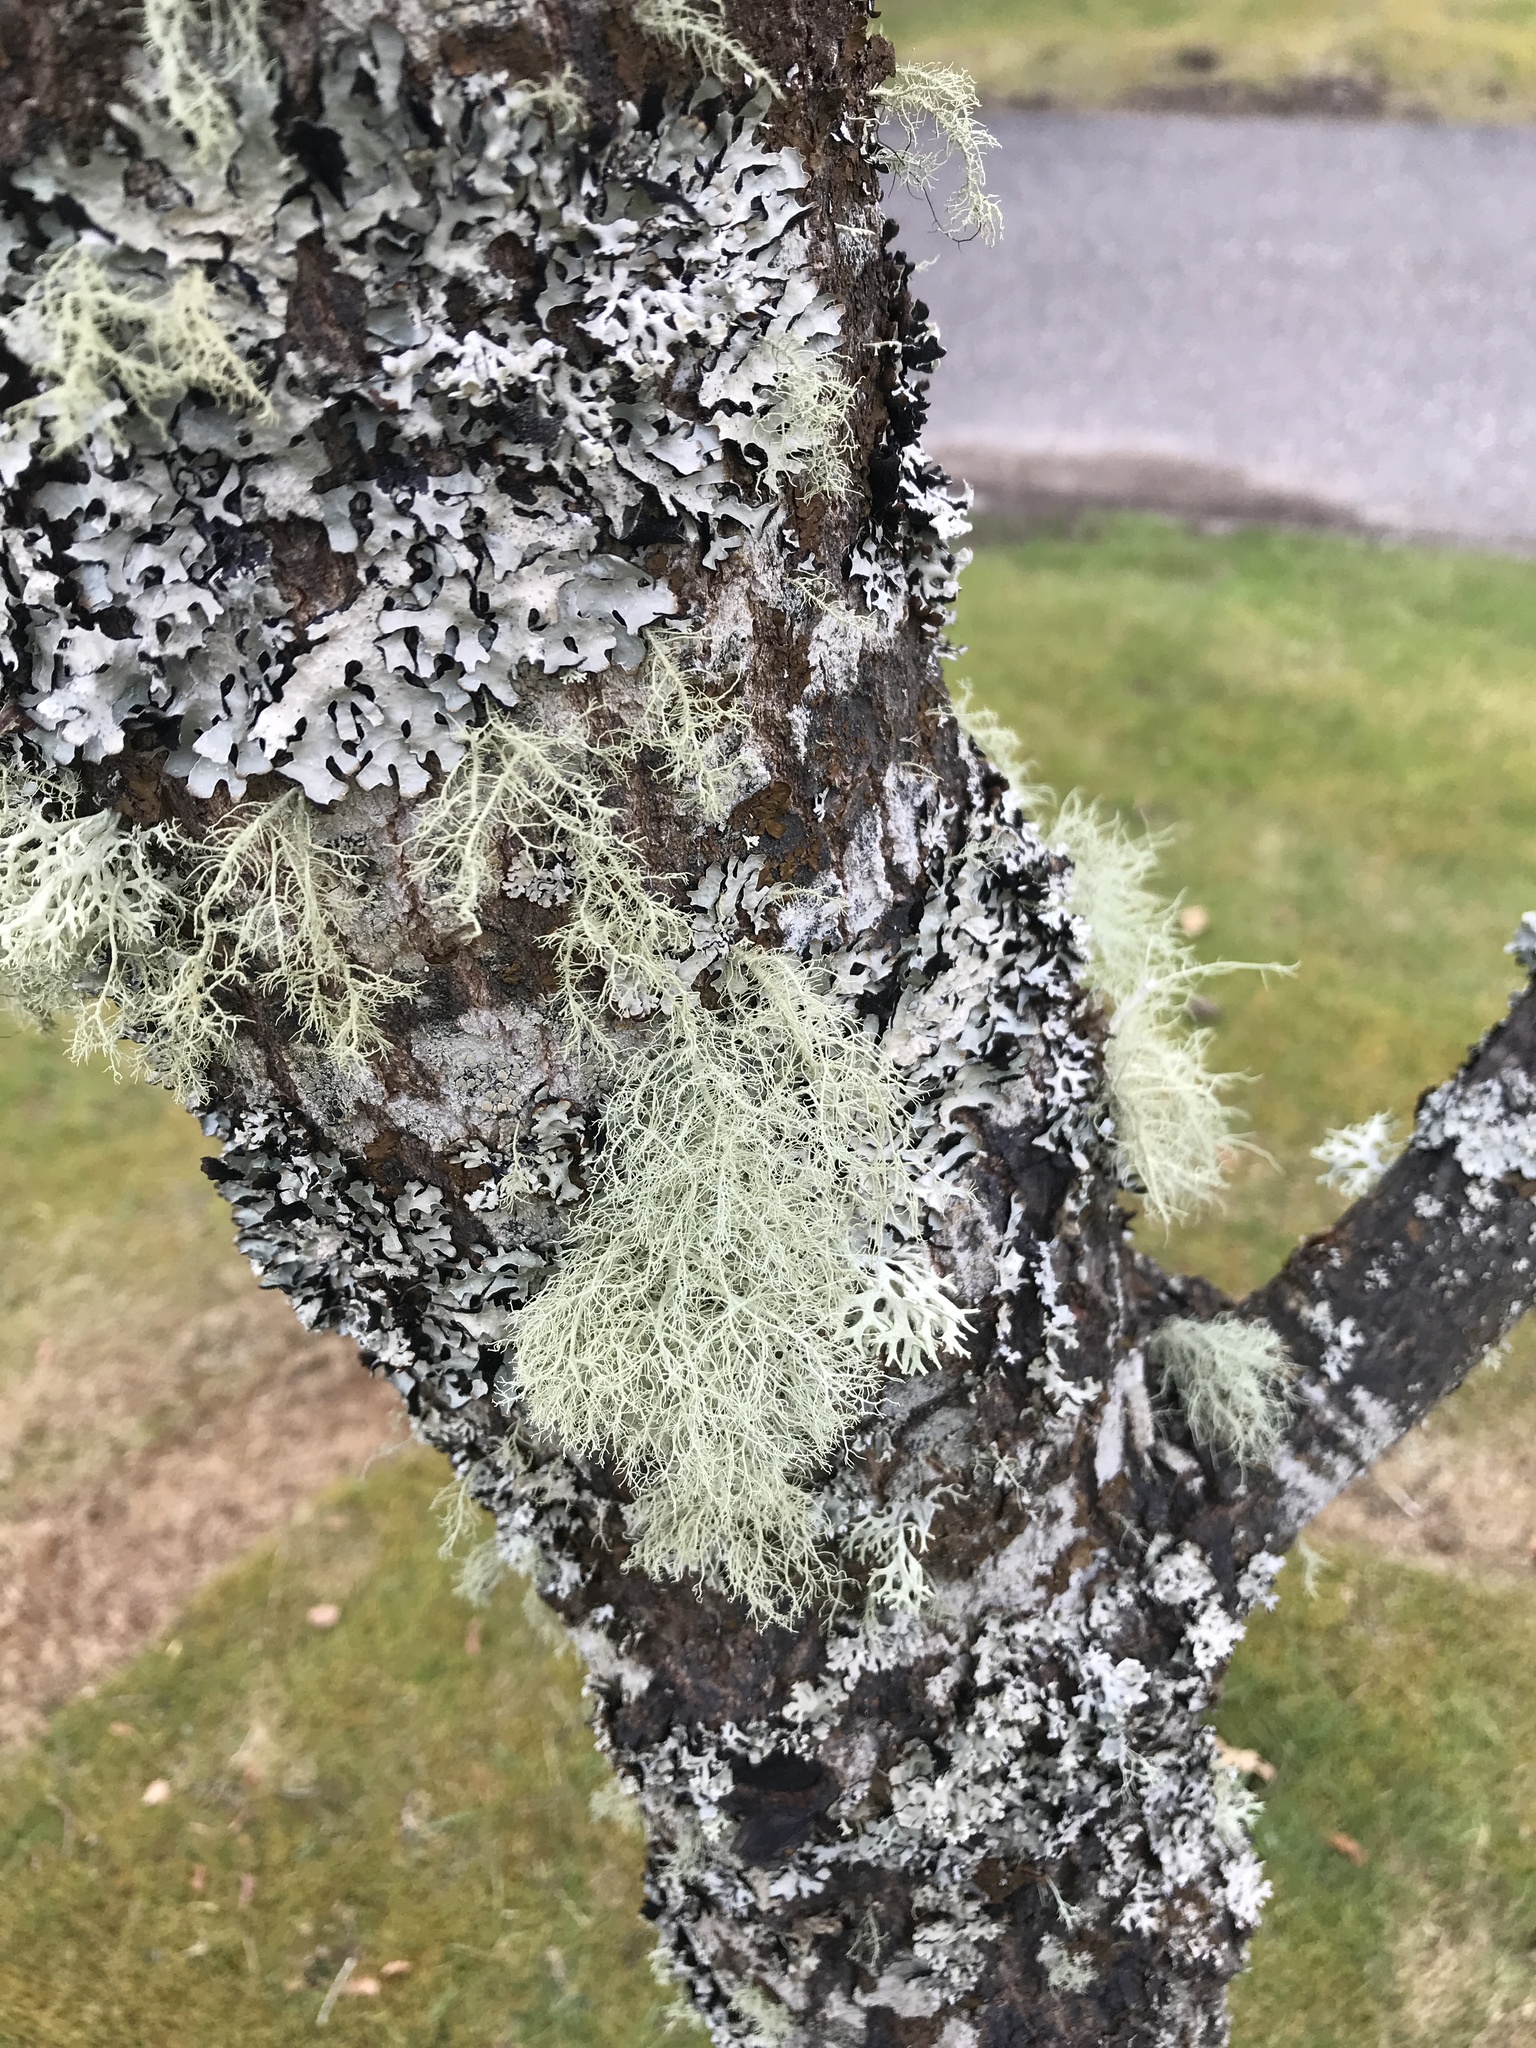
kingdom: Fungi
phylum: Ascomycota
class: Lecanoromycetes
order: Lecanorales
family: Parmeliaceae
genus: Usnea
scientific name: Usnea
